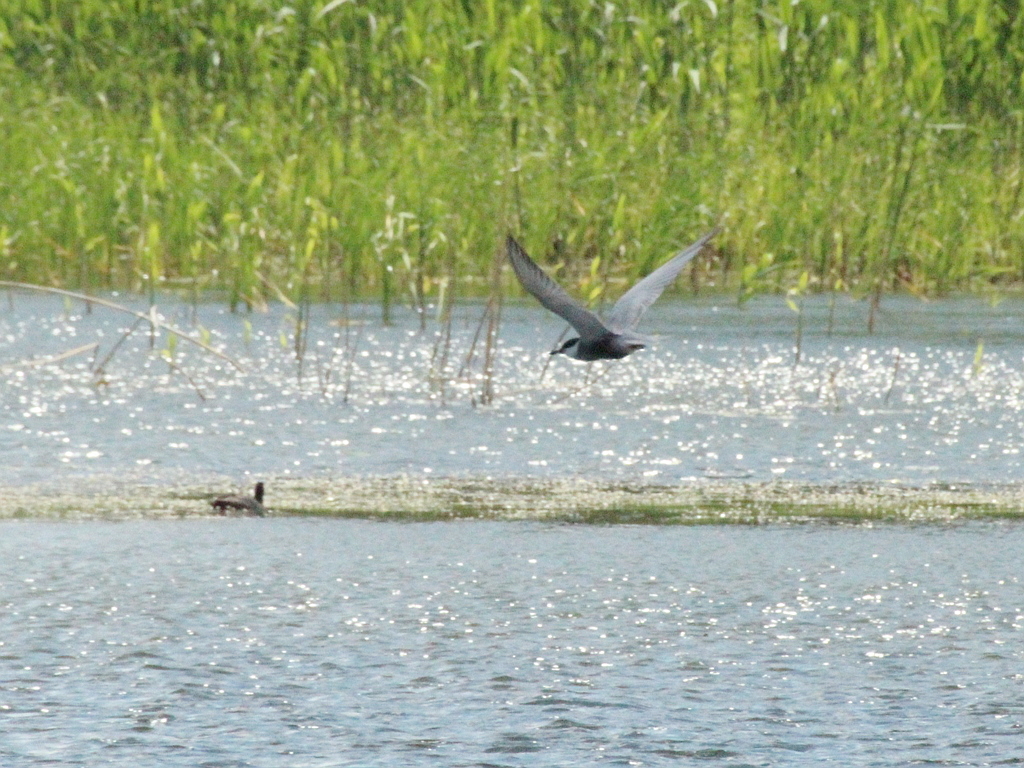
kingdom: Animalia
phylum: Chordata
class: Aves
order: Charadriiformes
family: Laridae
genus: Chlidonias
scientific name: Chlidonias hybrida
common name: Whiskered tern
